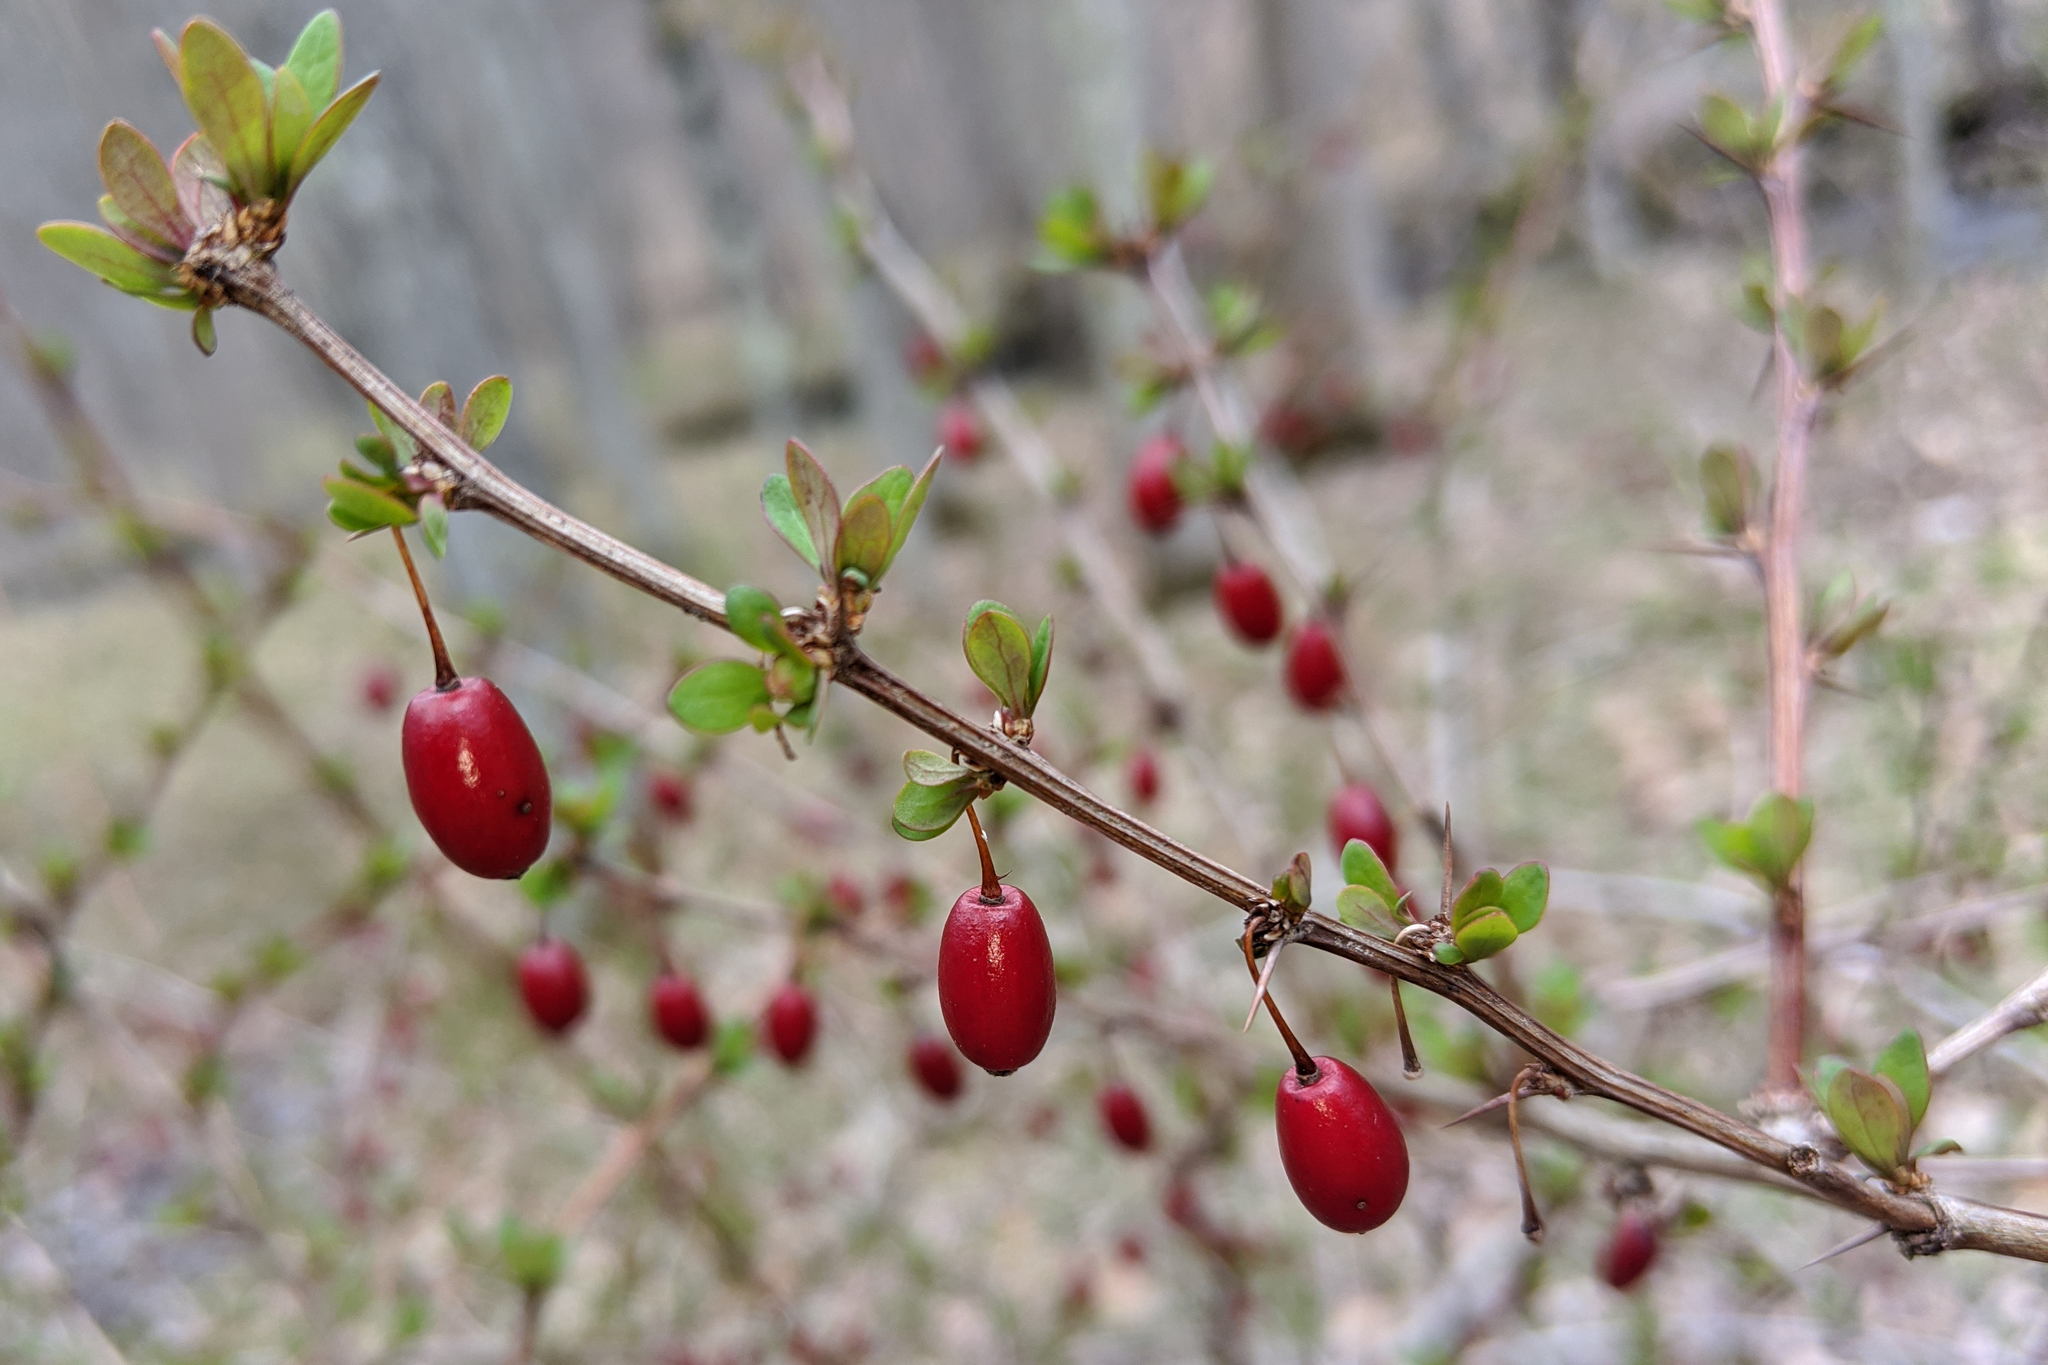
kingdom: Plantae
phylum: Tracheophyta
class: Magnoliopsida
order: Ranunculales
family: Berberidaceae
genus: Berberis
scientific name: Berberis thunbergii
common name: Japanese barberry
